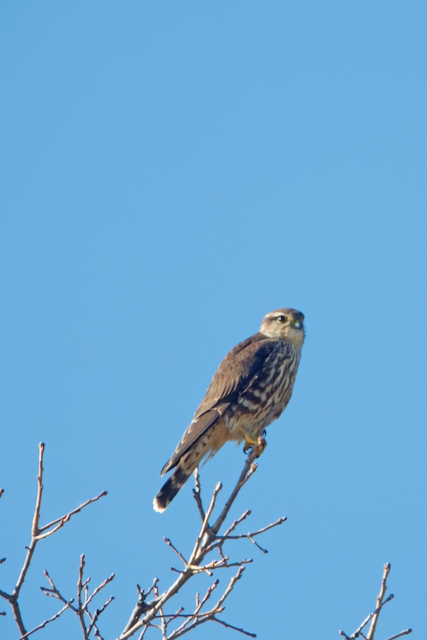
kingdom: Animalia
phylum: Chordata
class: Aves
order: Falconiformes
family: Falconidae
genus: Falco
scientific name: Falco columbarius
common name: Merlin
